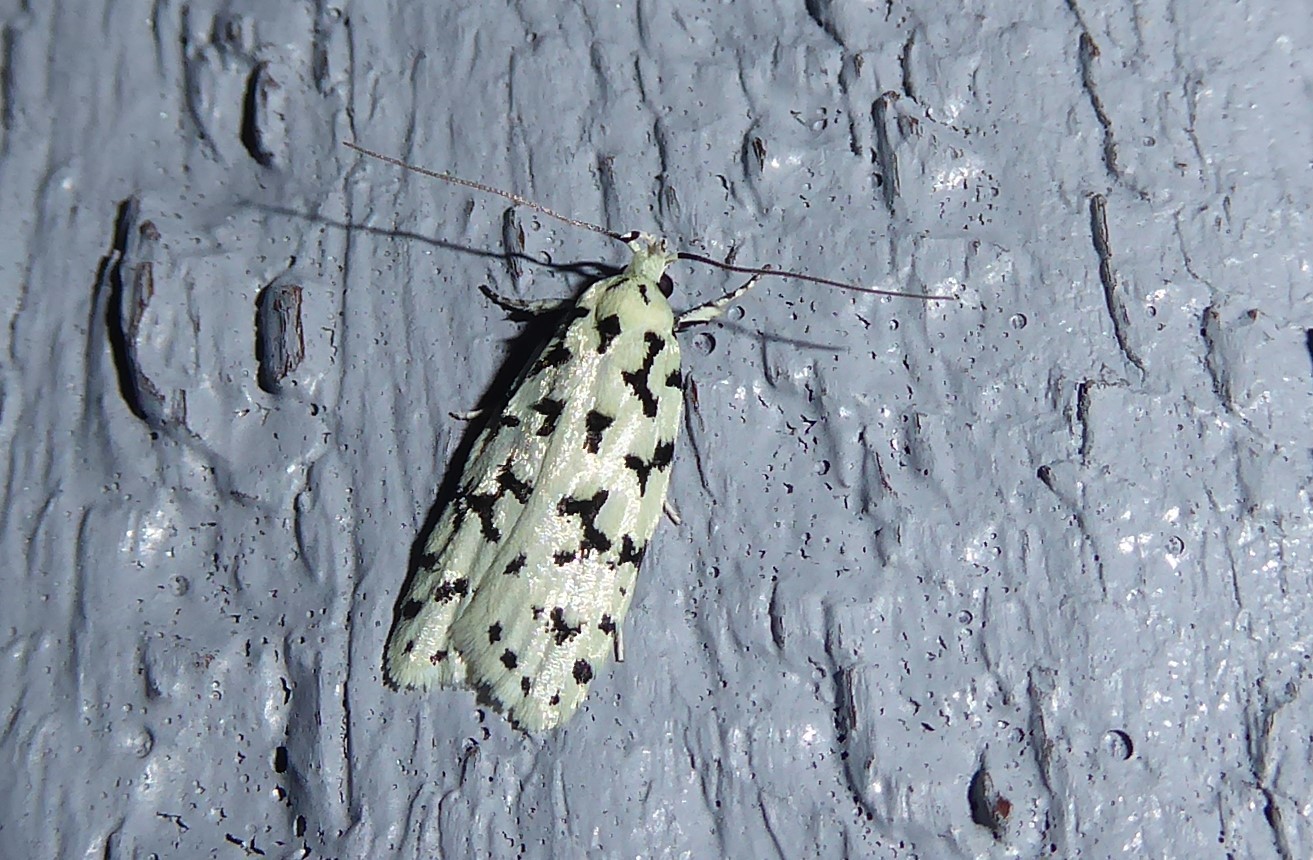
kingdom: Animalia
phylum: Arthropoda
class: Insecta
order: Lepidoptera
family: Oecophoridae
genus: Izatha
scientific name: Izatha huttoni
